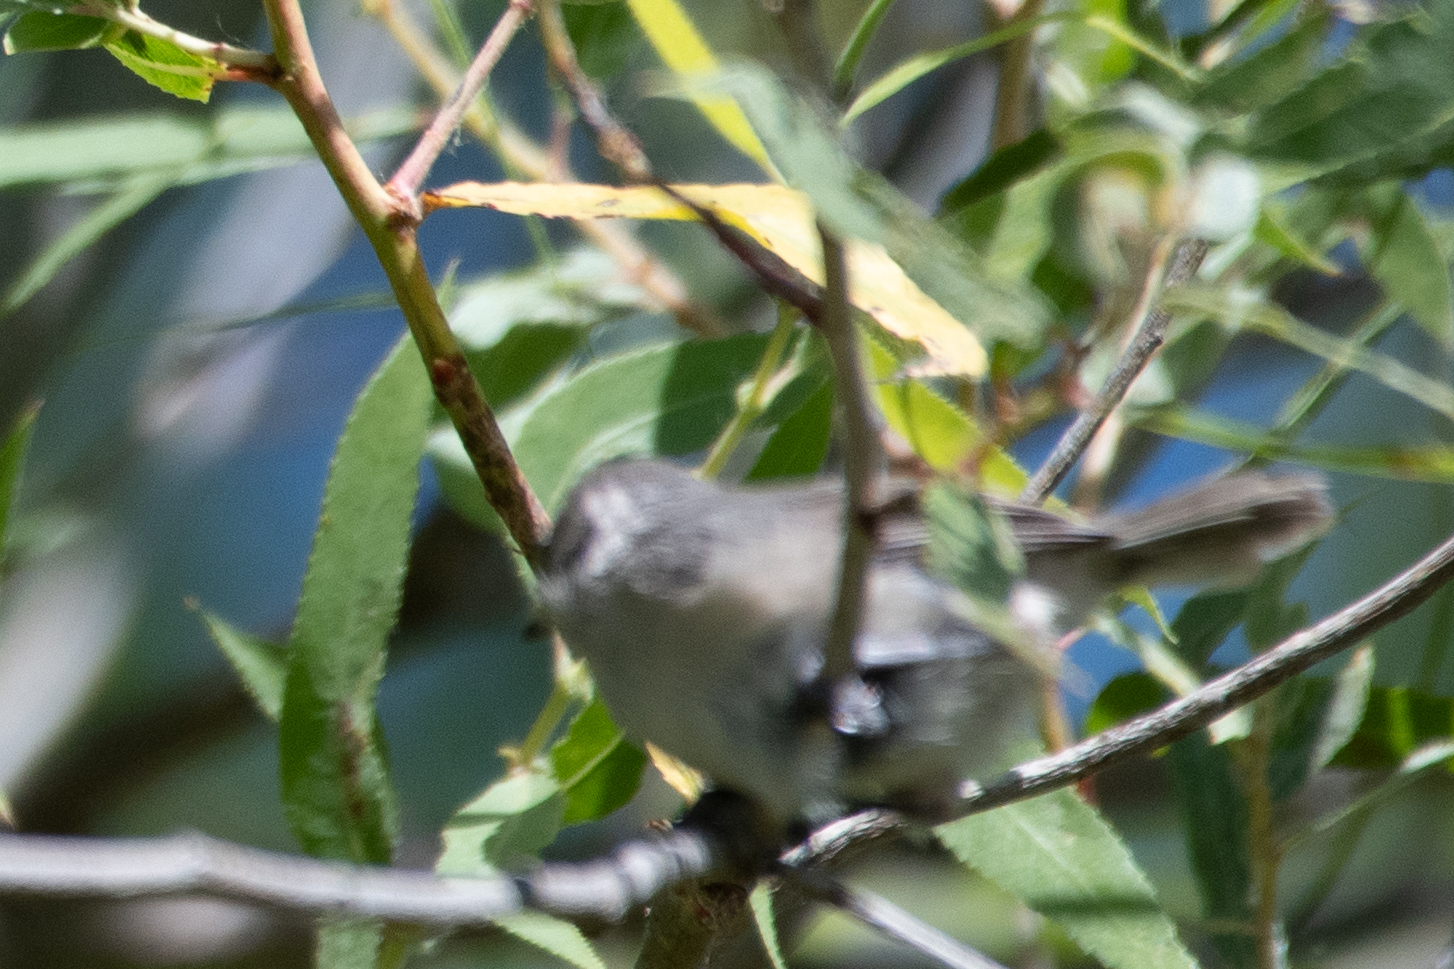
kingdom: Animalia
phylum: Chordata
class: Aves
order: Passeriformes
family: Aegithalidae
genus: Psaltriparus
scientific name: Psaltriparus minimus
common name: American bushtit
